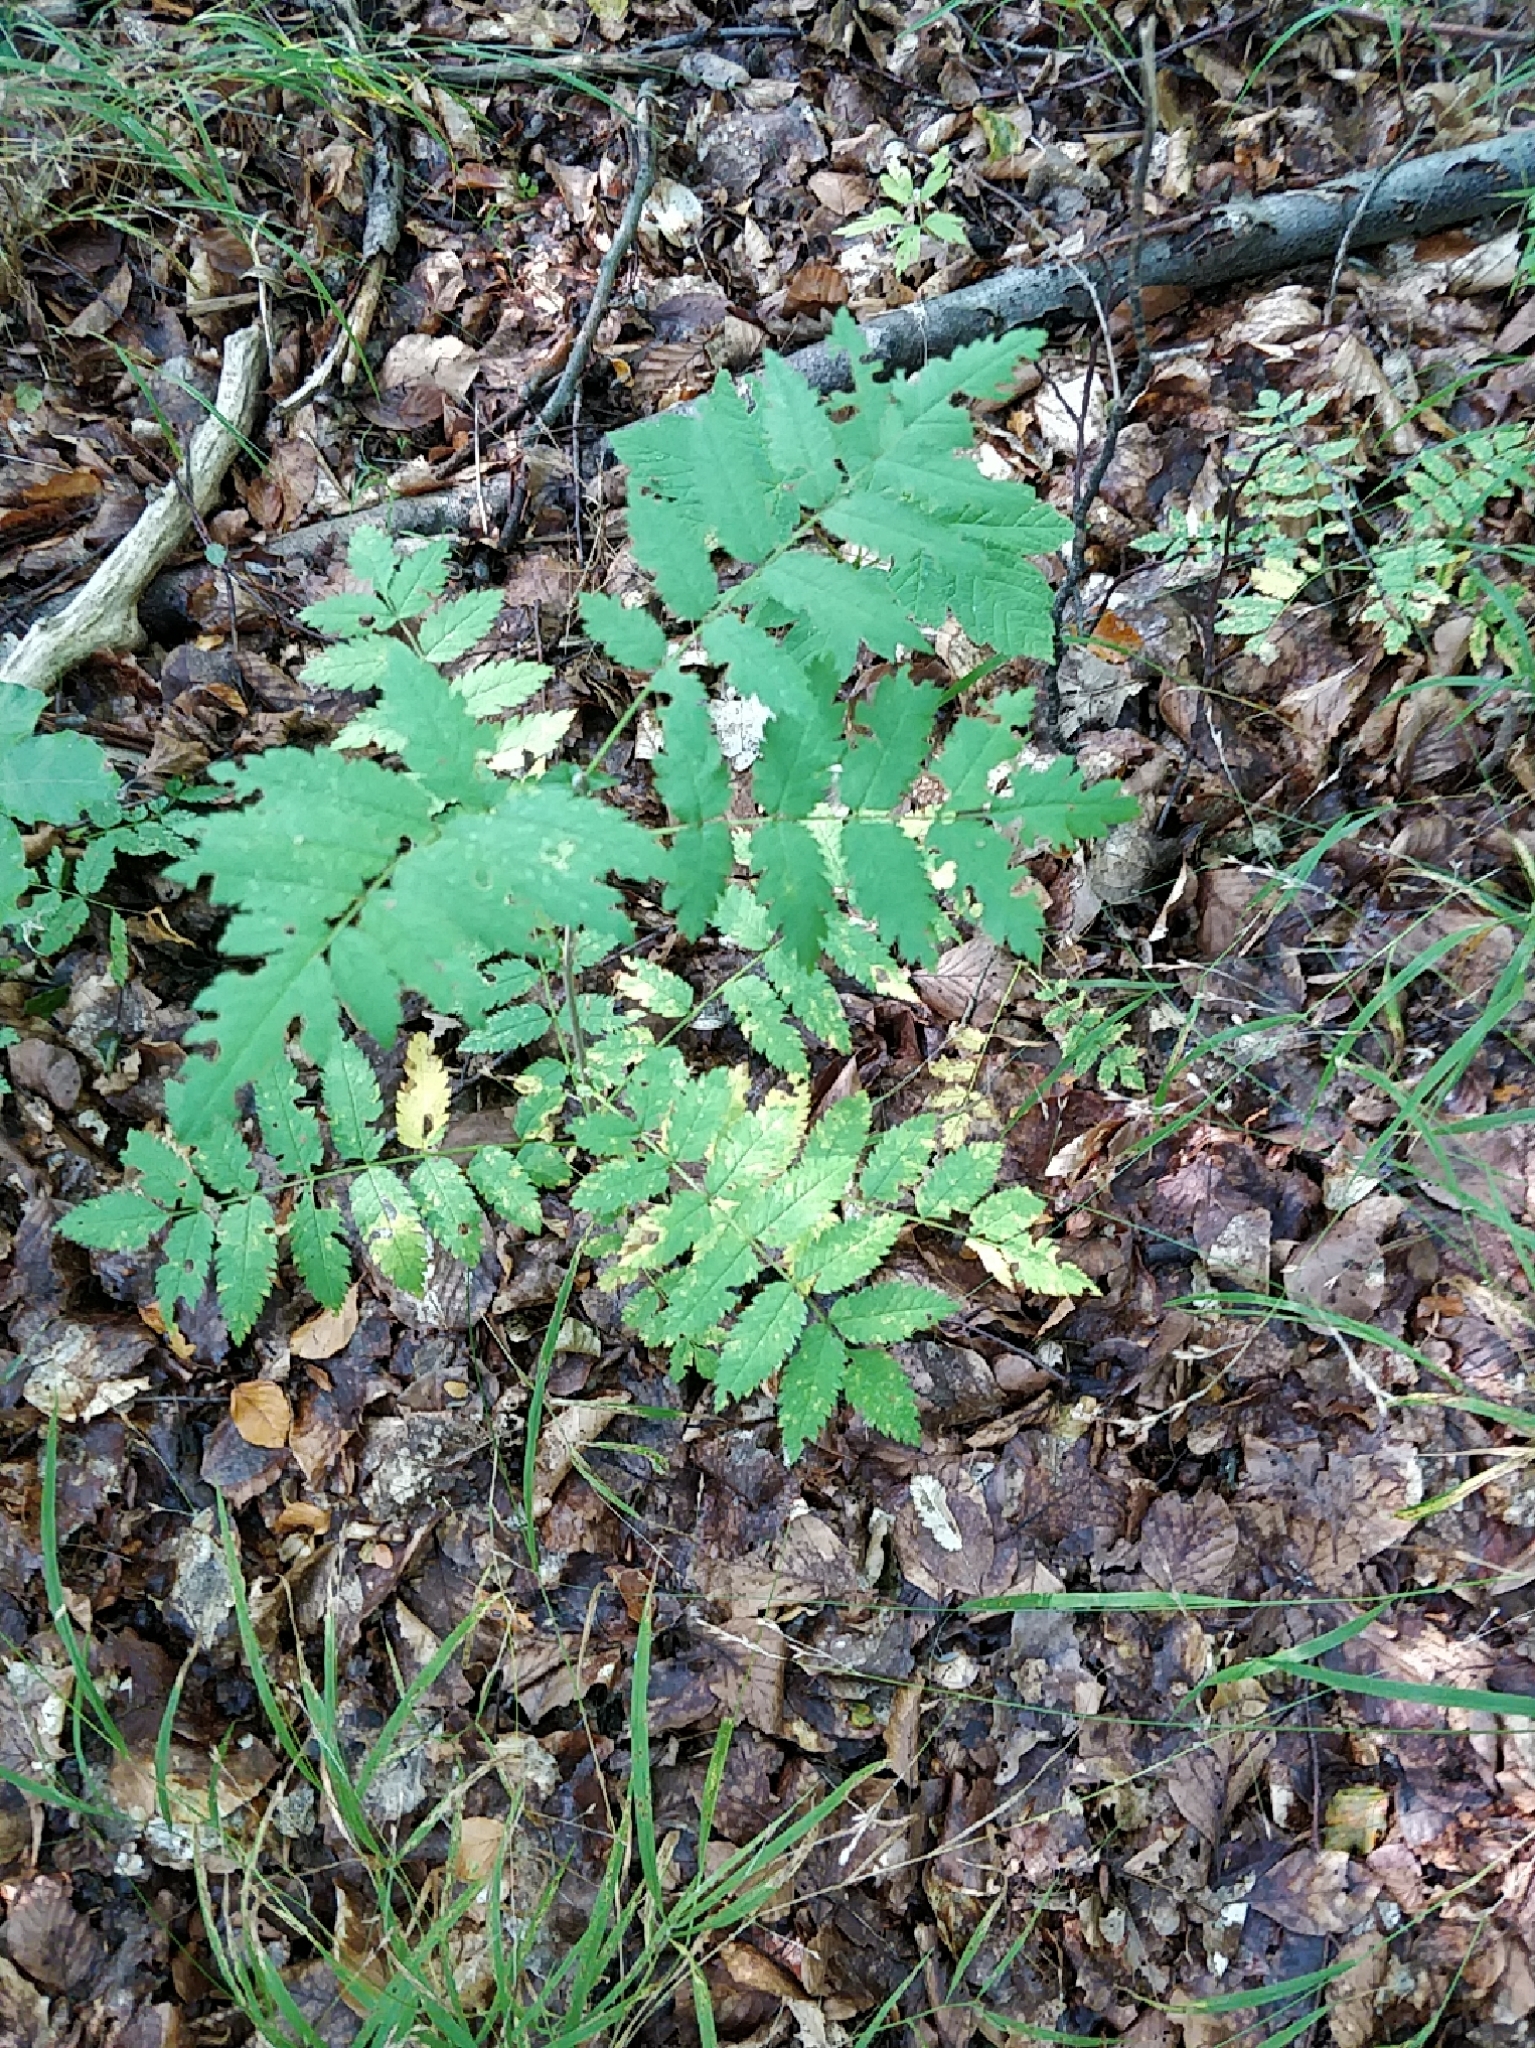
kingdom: Plantae
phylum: Tracheophyta
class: Magnoliopsida
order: Rosales
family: Rosaceae
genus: Sorbus
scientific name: Sorbus aucuparia
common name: Rowan
